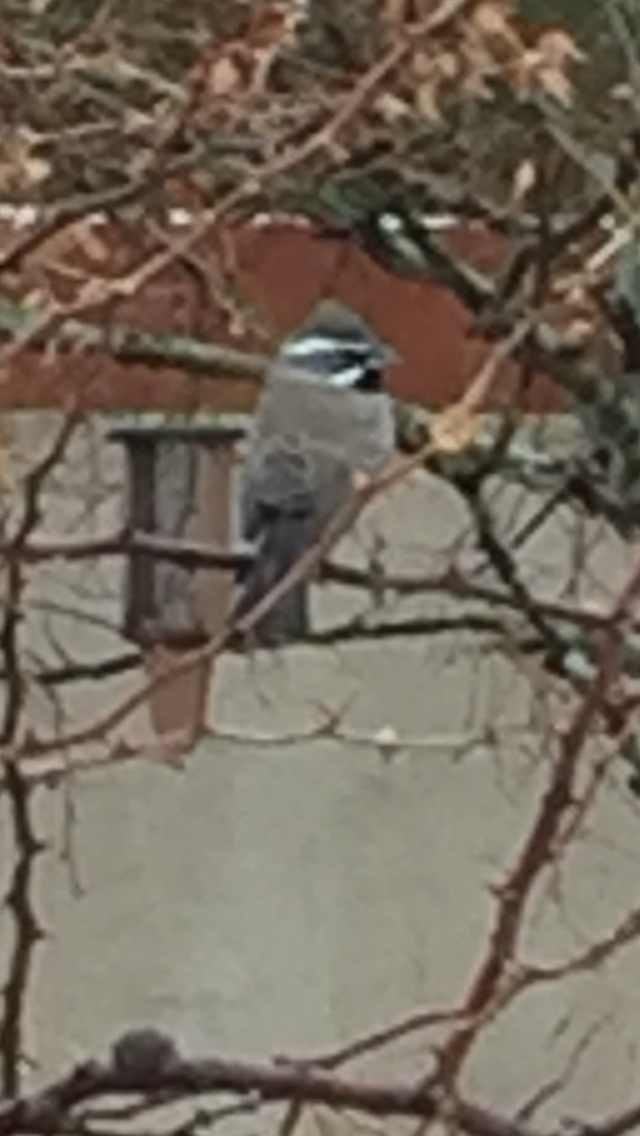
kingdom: Animalia
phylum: Chordata
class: Aves
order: Passeriformes
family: Passerellidae
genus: Amphispiza
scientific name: Amphispiza bilineata
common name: Black-throated sparrow
